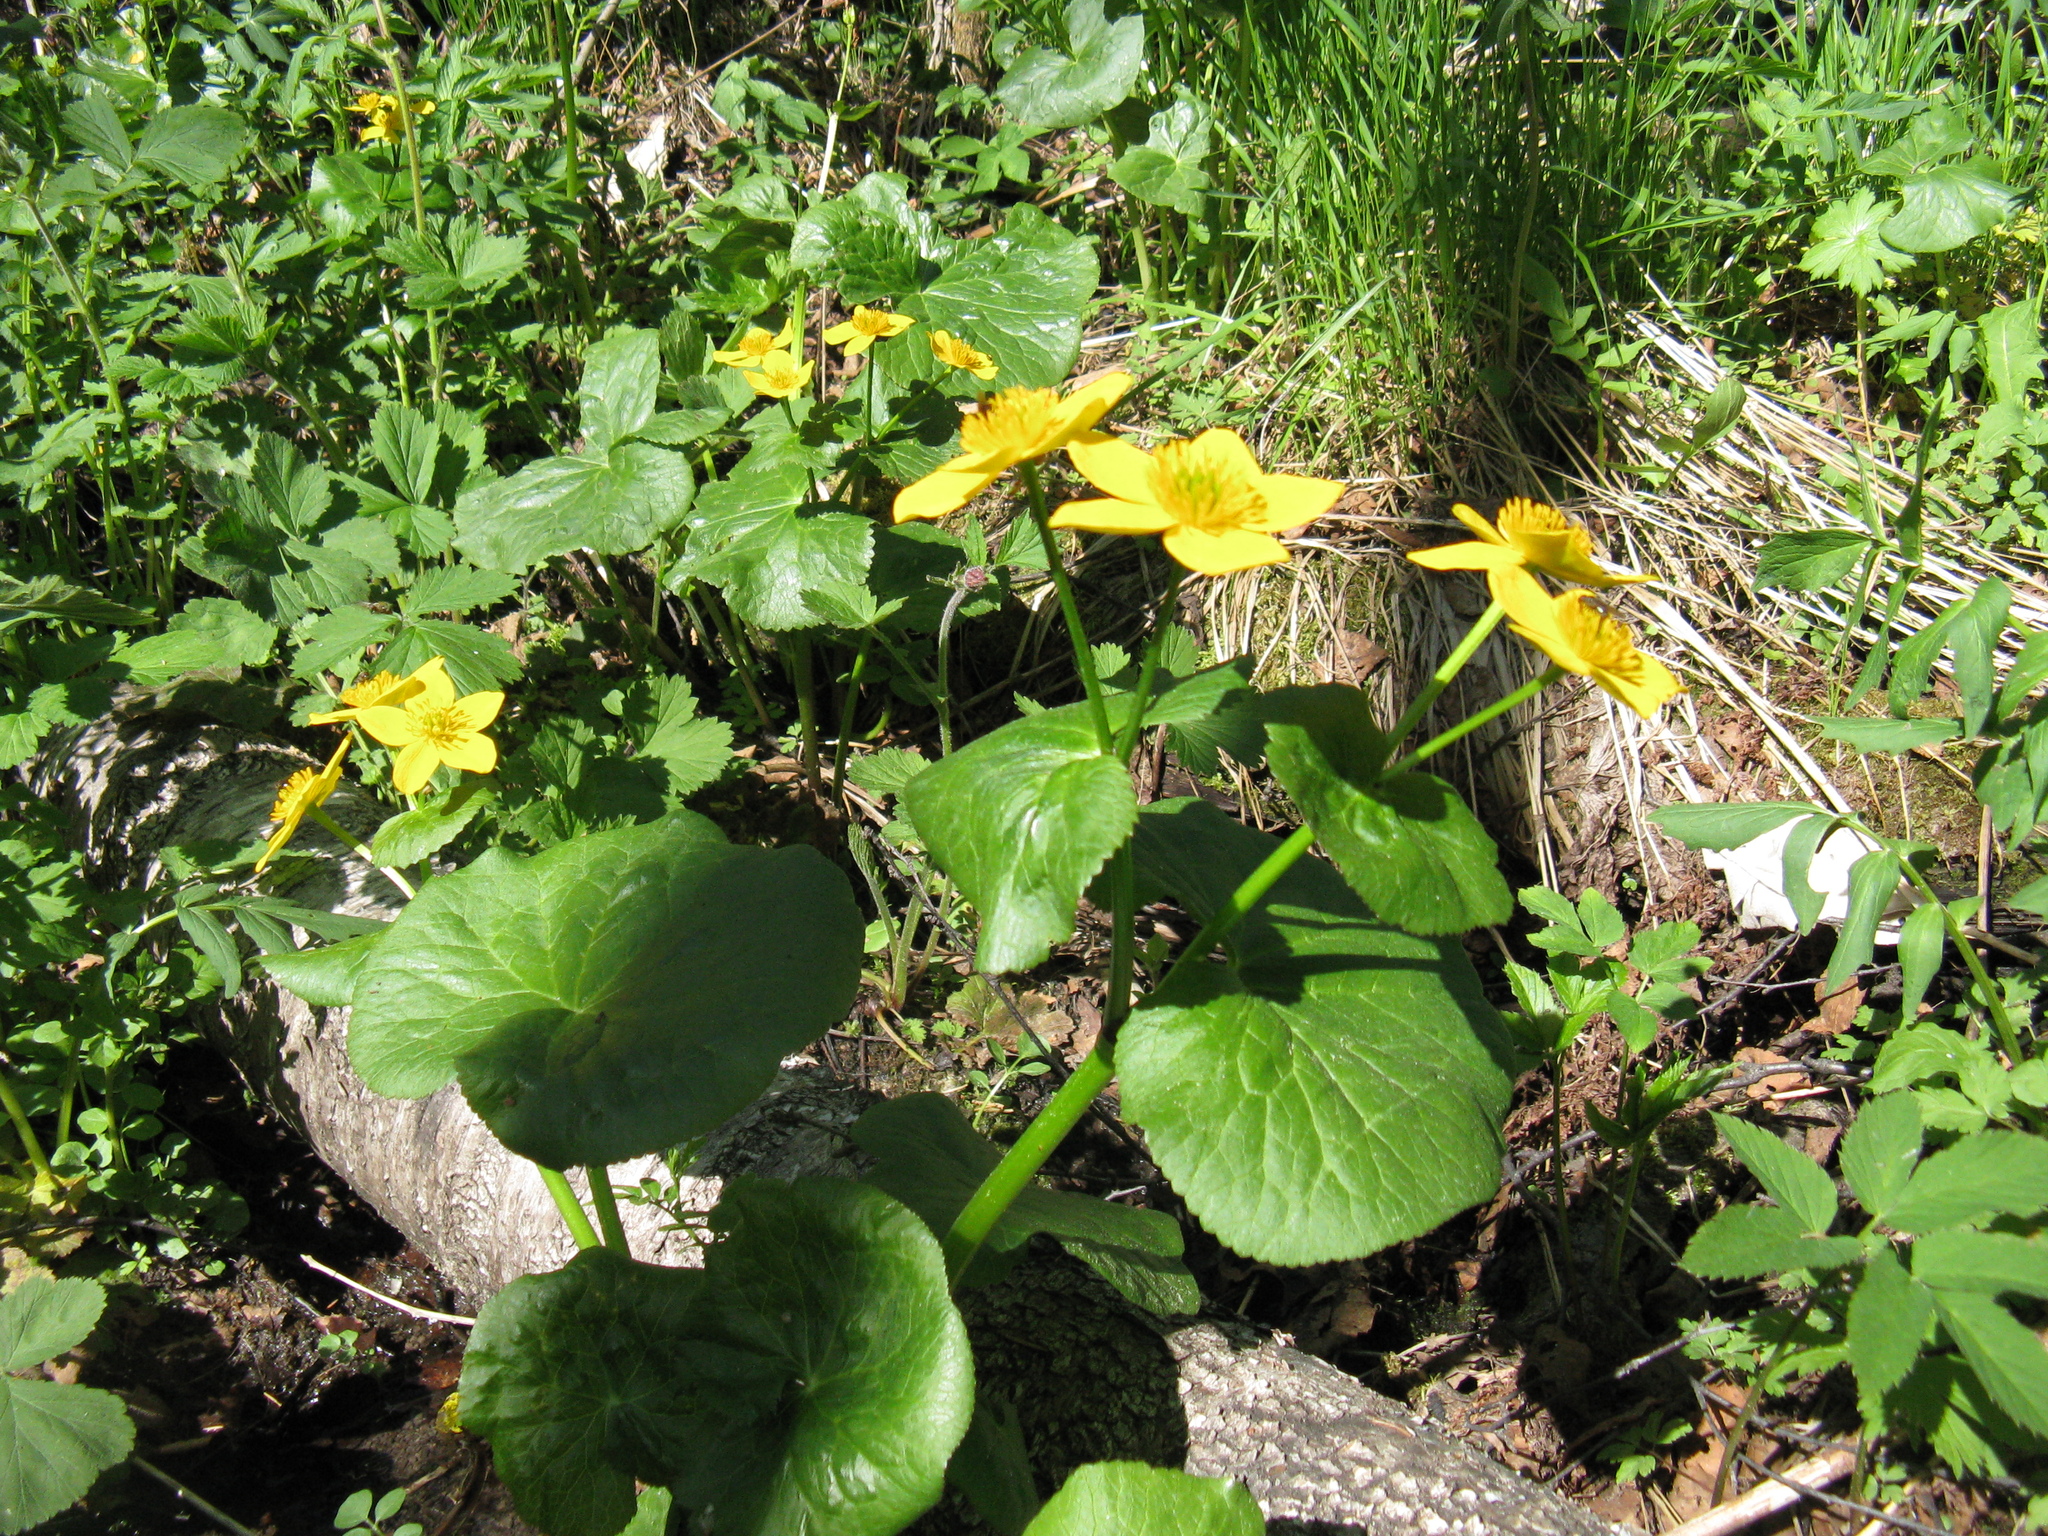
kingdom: Plantae
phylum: Tracheophyta
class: Magnoliopsida
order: Ranunculales
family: Ranunculaceae
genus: Caltha
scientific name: Caltha palustris
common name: Marsh marigold
